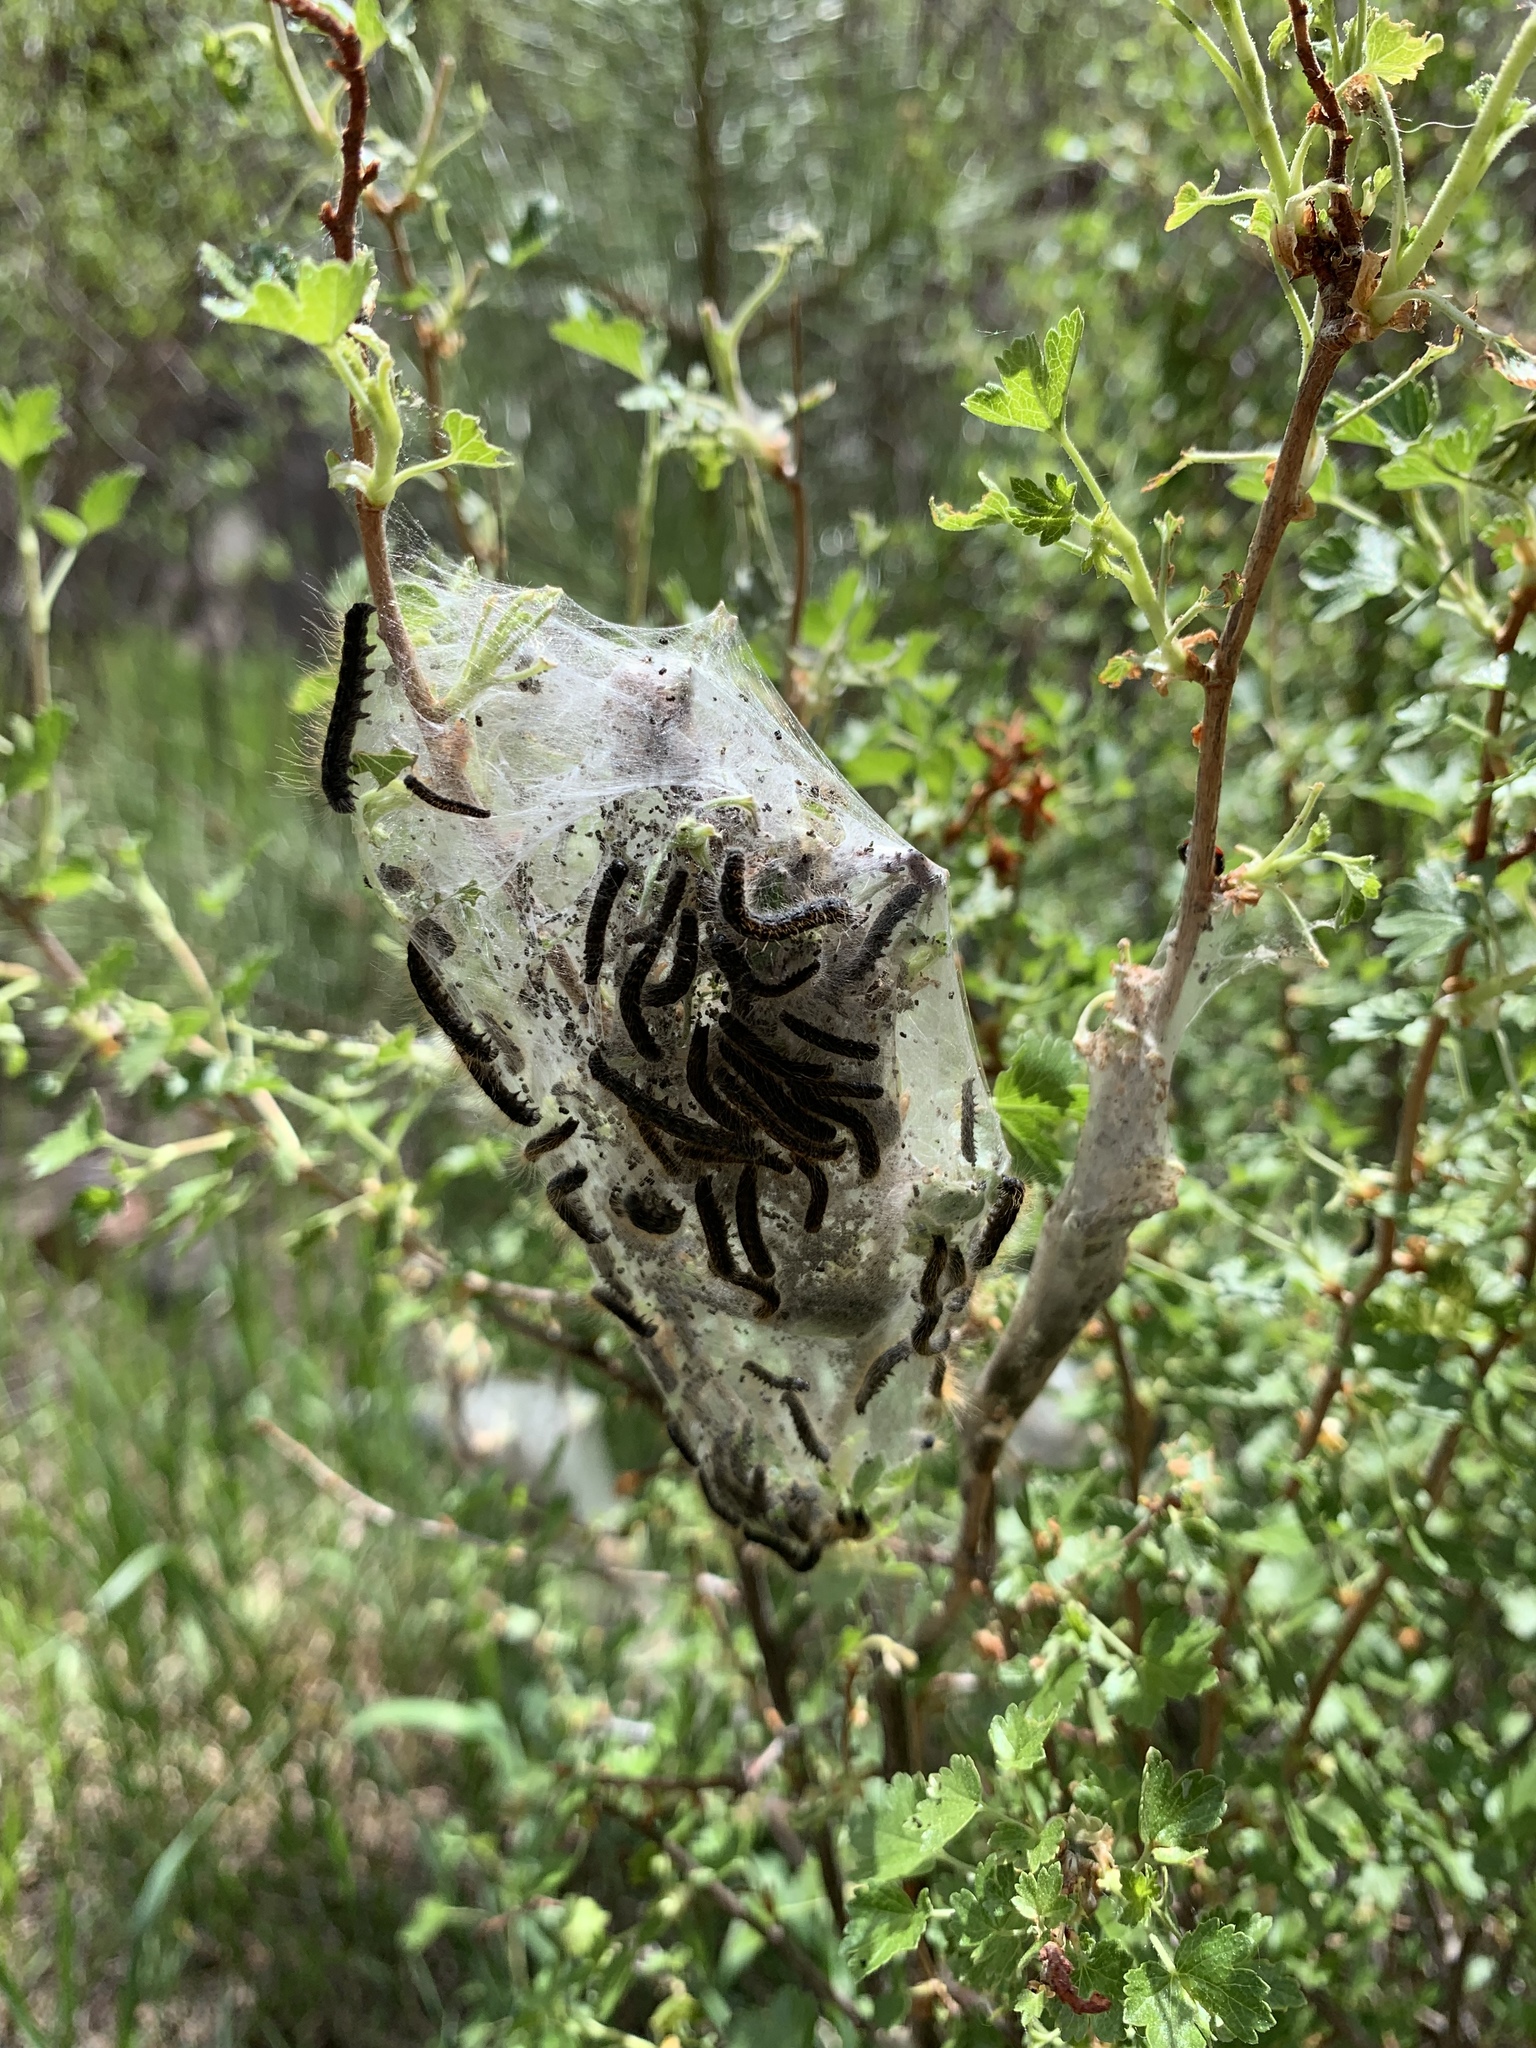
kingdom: Animalia
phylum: Arthropoda
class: Insecta
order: Lepidoptera
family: Lasiocampidae
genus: Malacosoma
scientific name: Malacosoma californica
